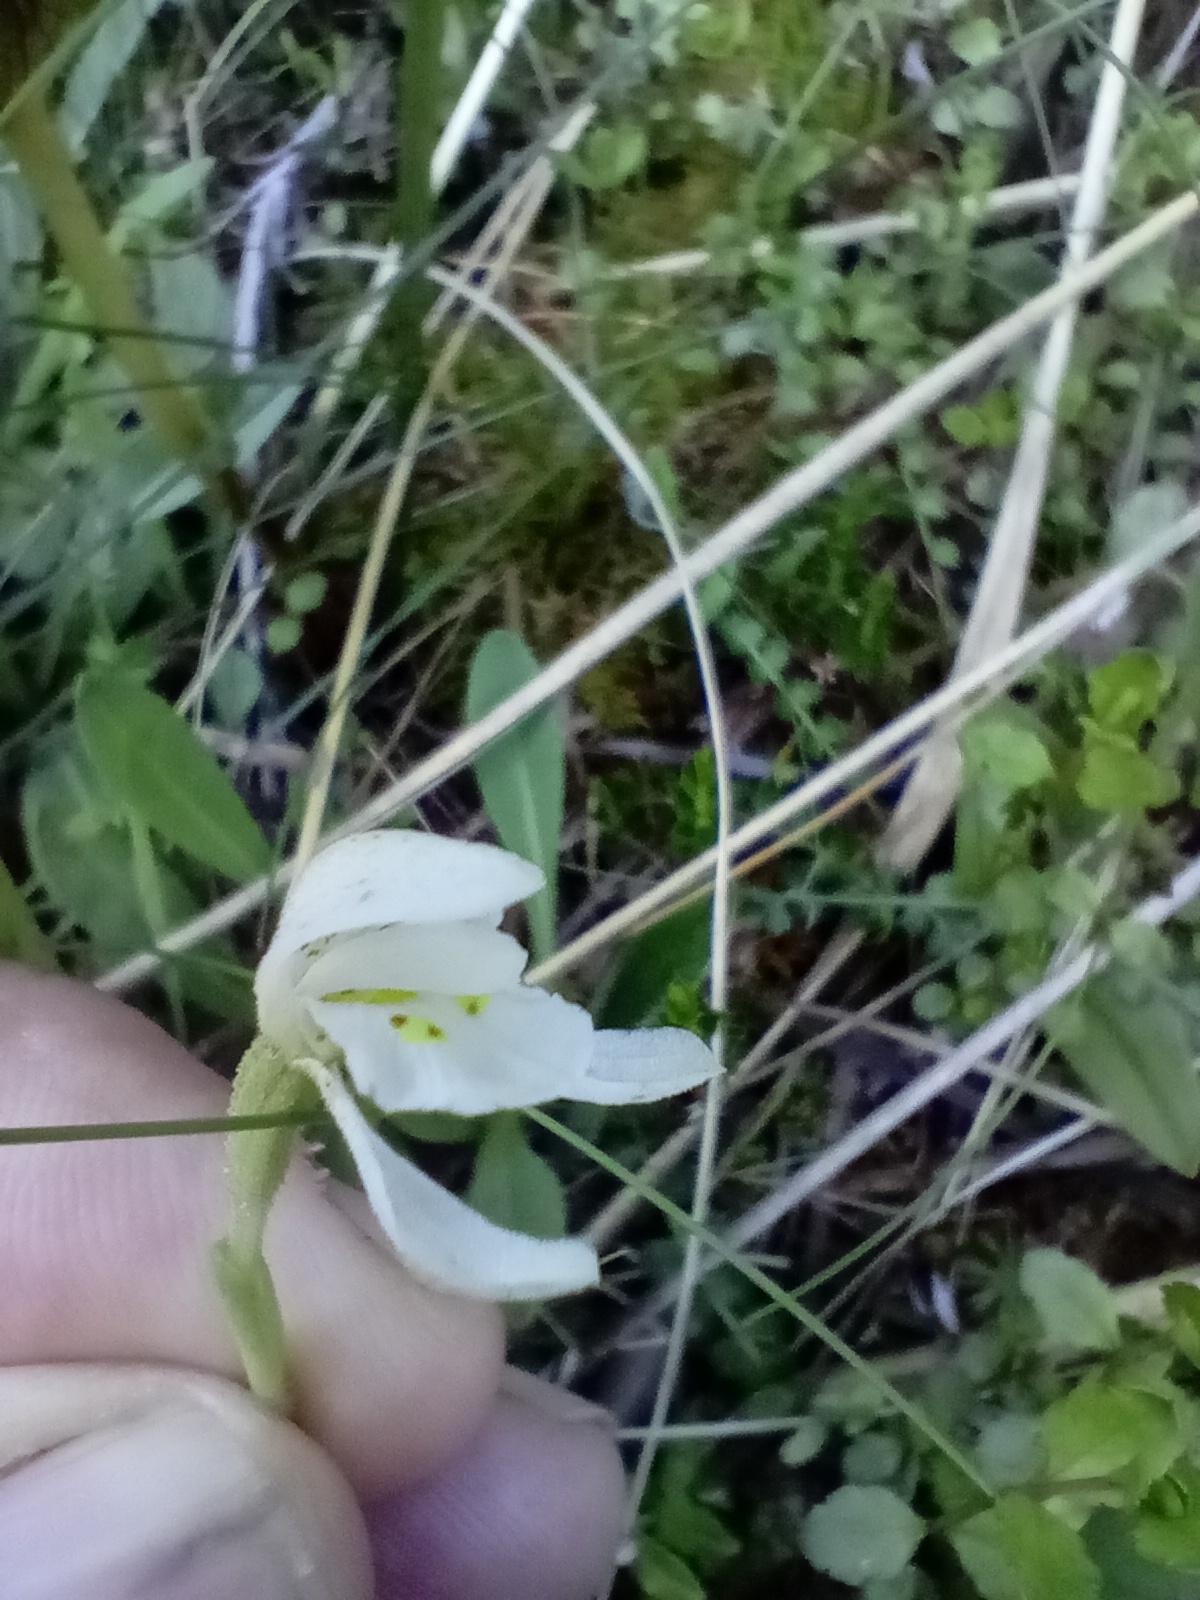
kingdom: Plantae
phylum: Tracheophyta
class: Liliopsida
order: Asparagales
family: Orchidaceae
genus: Aporostylis
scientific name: Aporostylis bifolia
